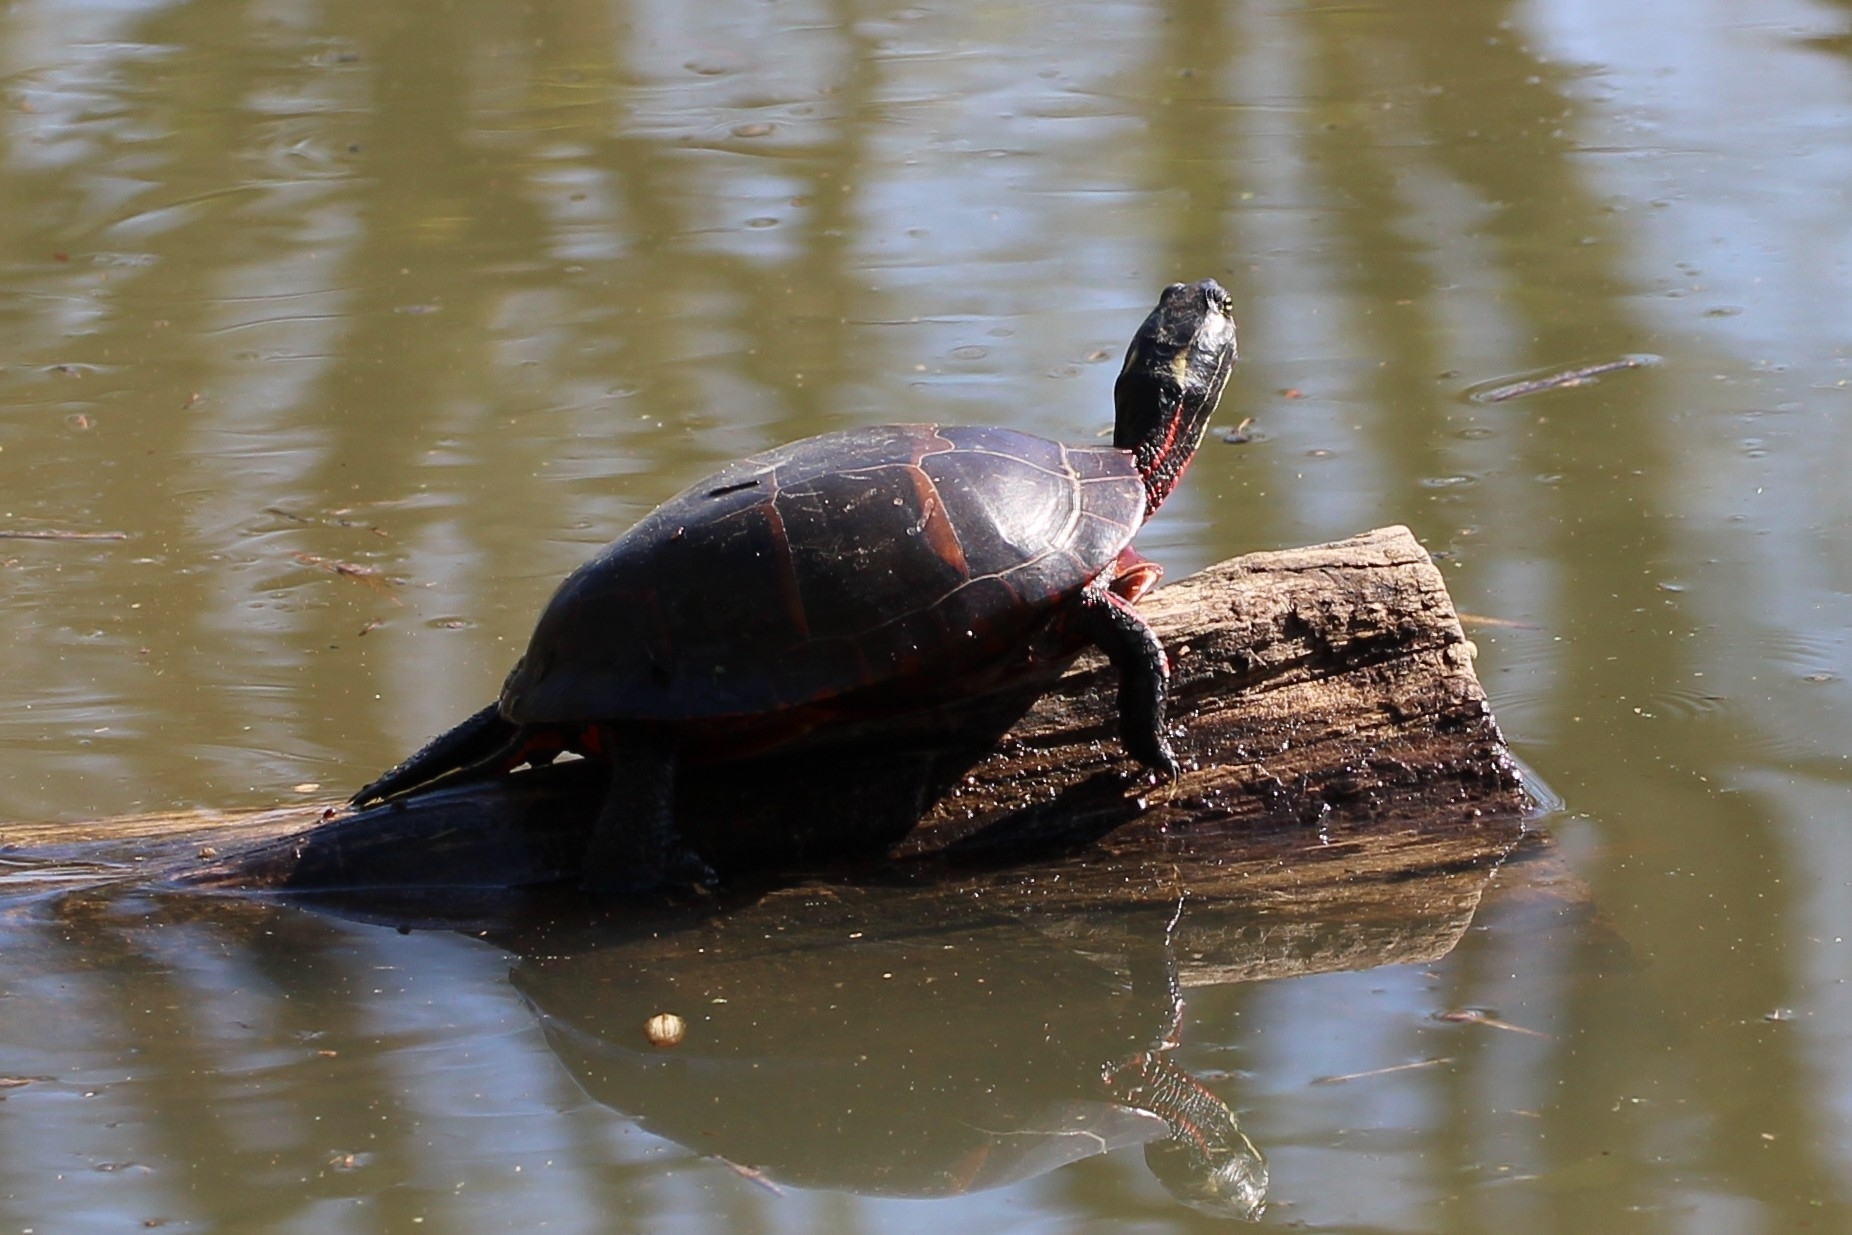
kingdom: Animalia
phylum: Chordata
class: Testudines
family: Emydidae
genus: Chrysemys
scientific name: Chrysemys picta
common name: Painted turtle
